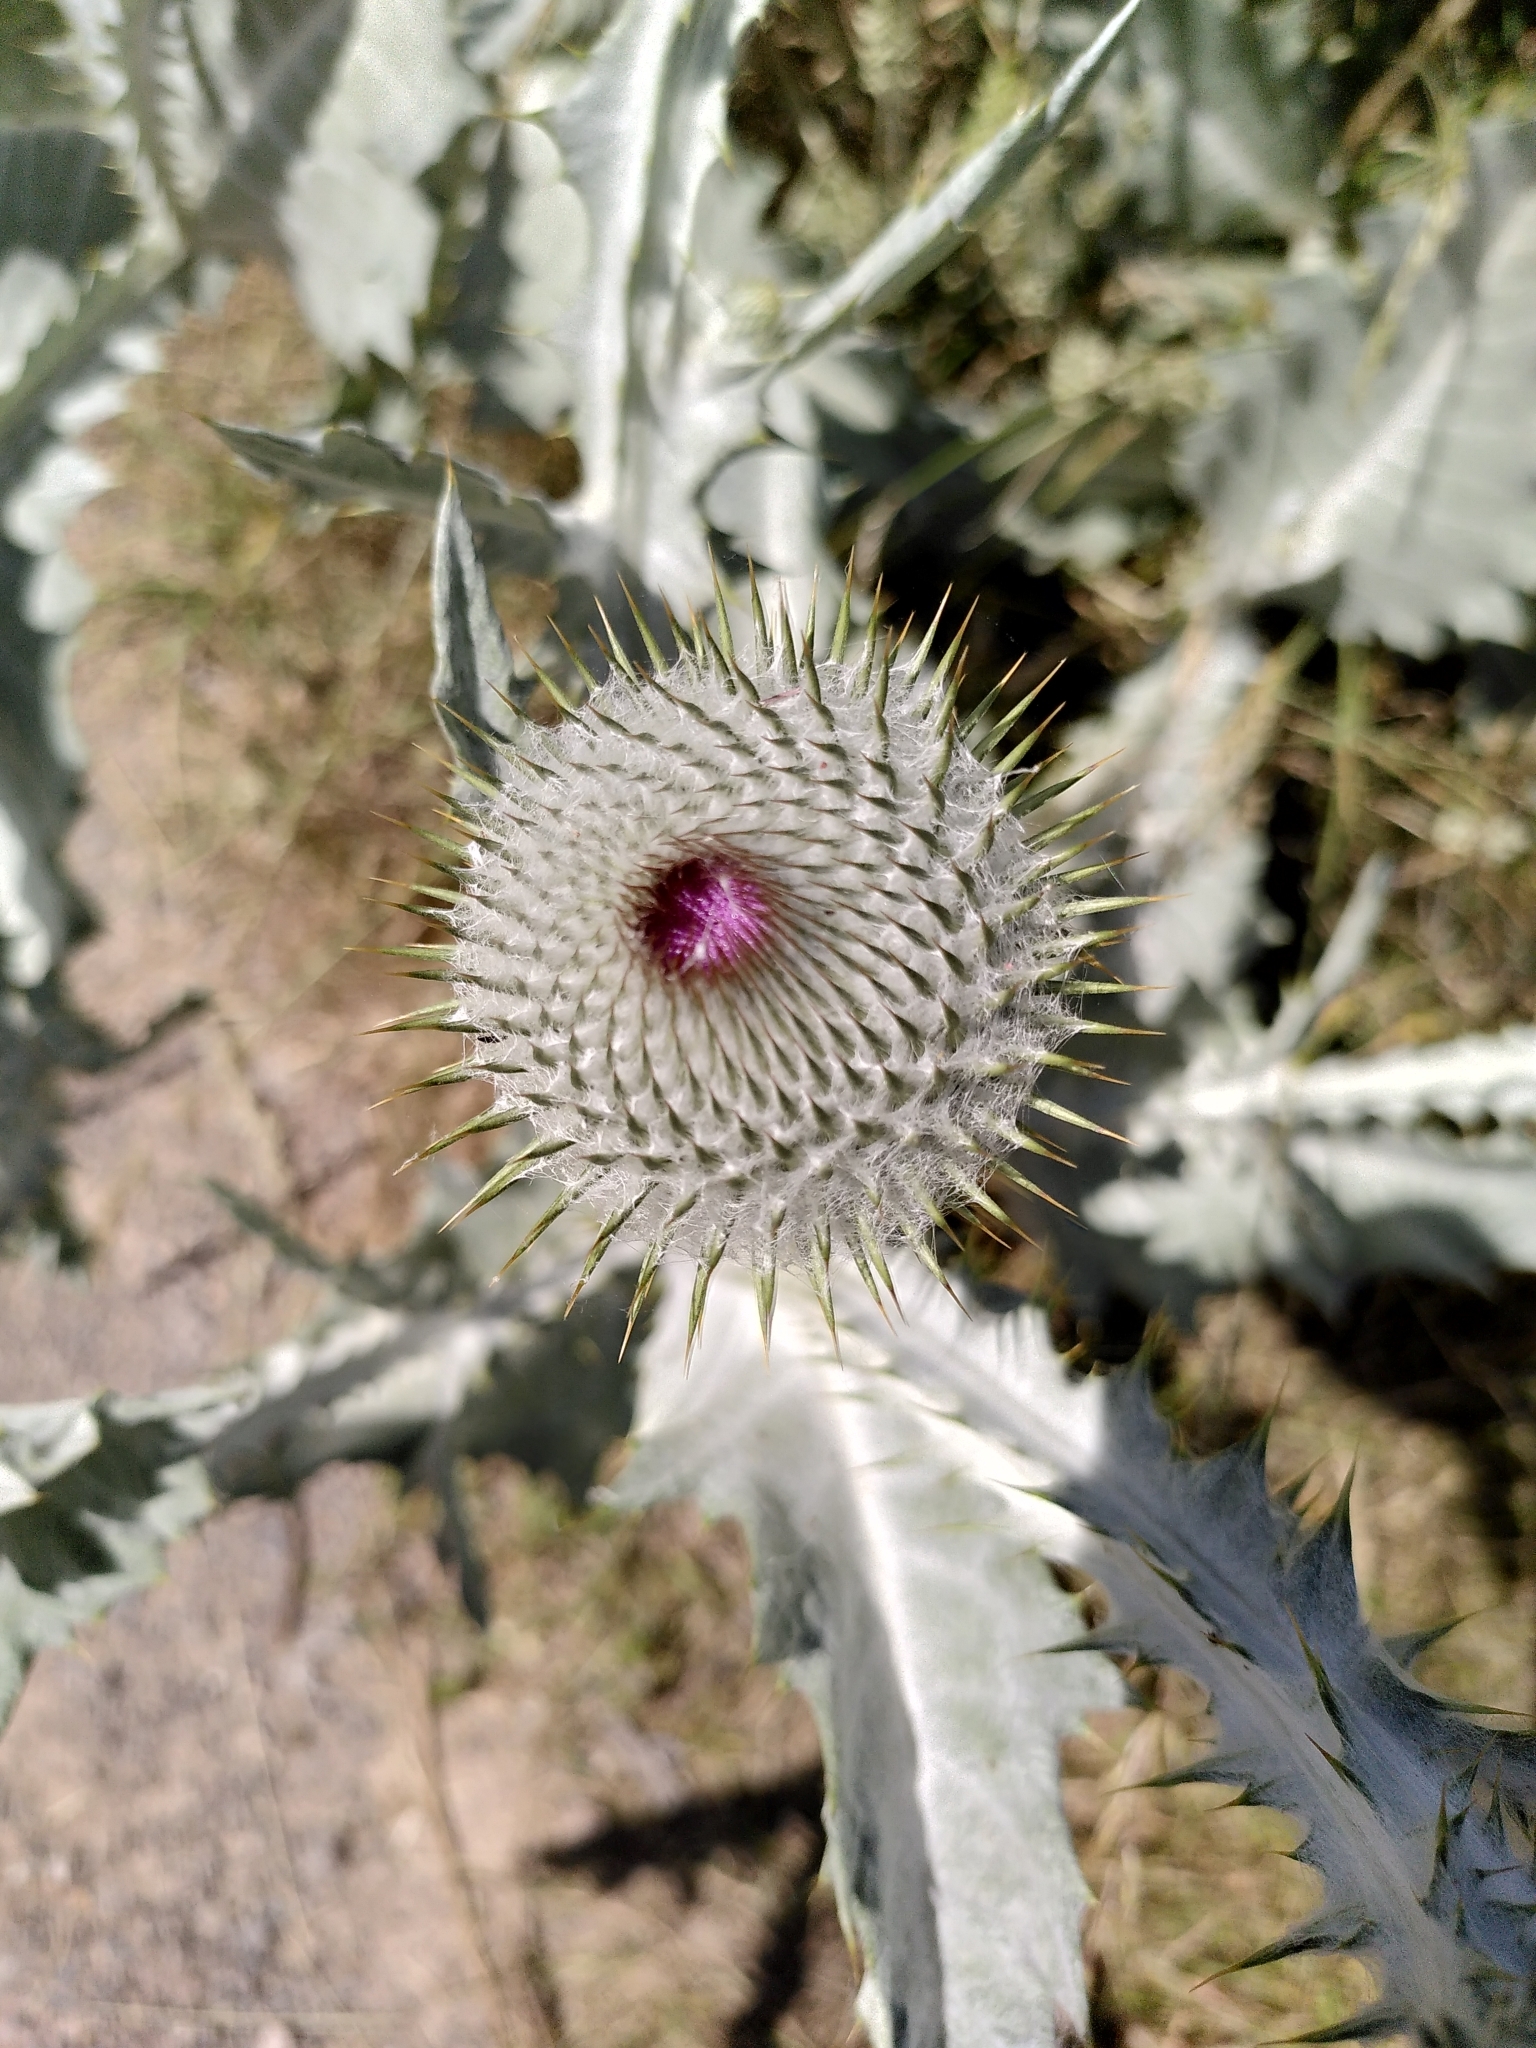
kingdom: Plantae
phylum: Tracheophyta
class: Magnoliopsida
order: Asterales
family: Asteraceae
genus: Onopordum
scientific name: Onopordum acanthium
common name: Scotch thistle
